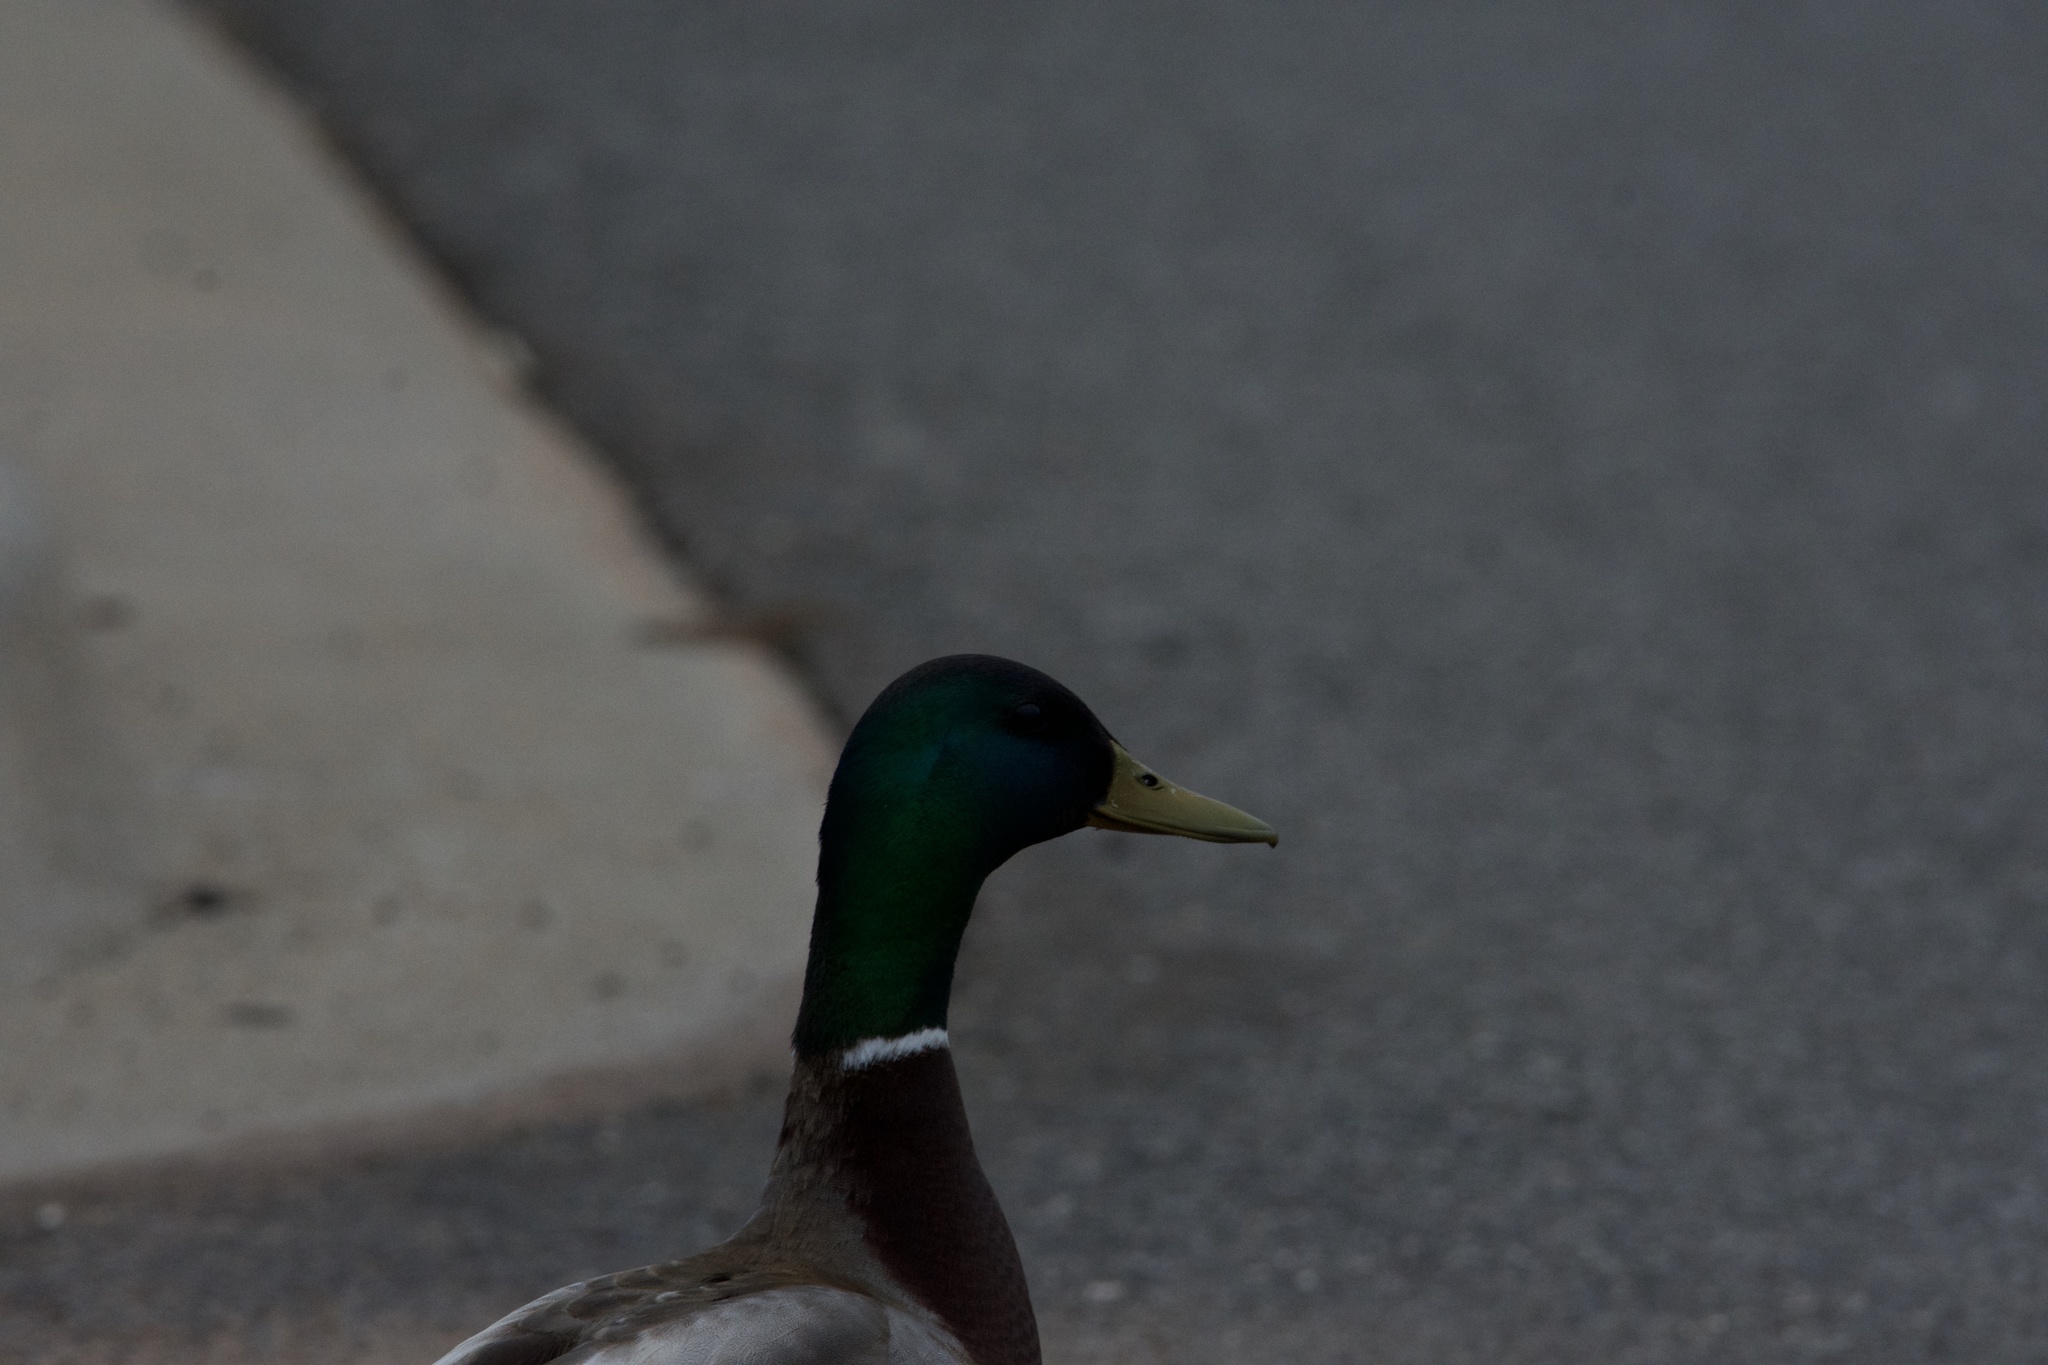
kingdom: Animalia
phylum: Chordata
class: Aves
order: Anseriformes
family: Anatidae
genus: Anas
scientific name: Anas platyrhynchos
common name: Mallard
